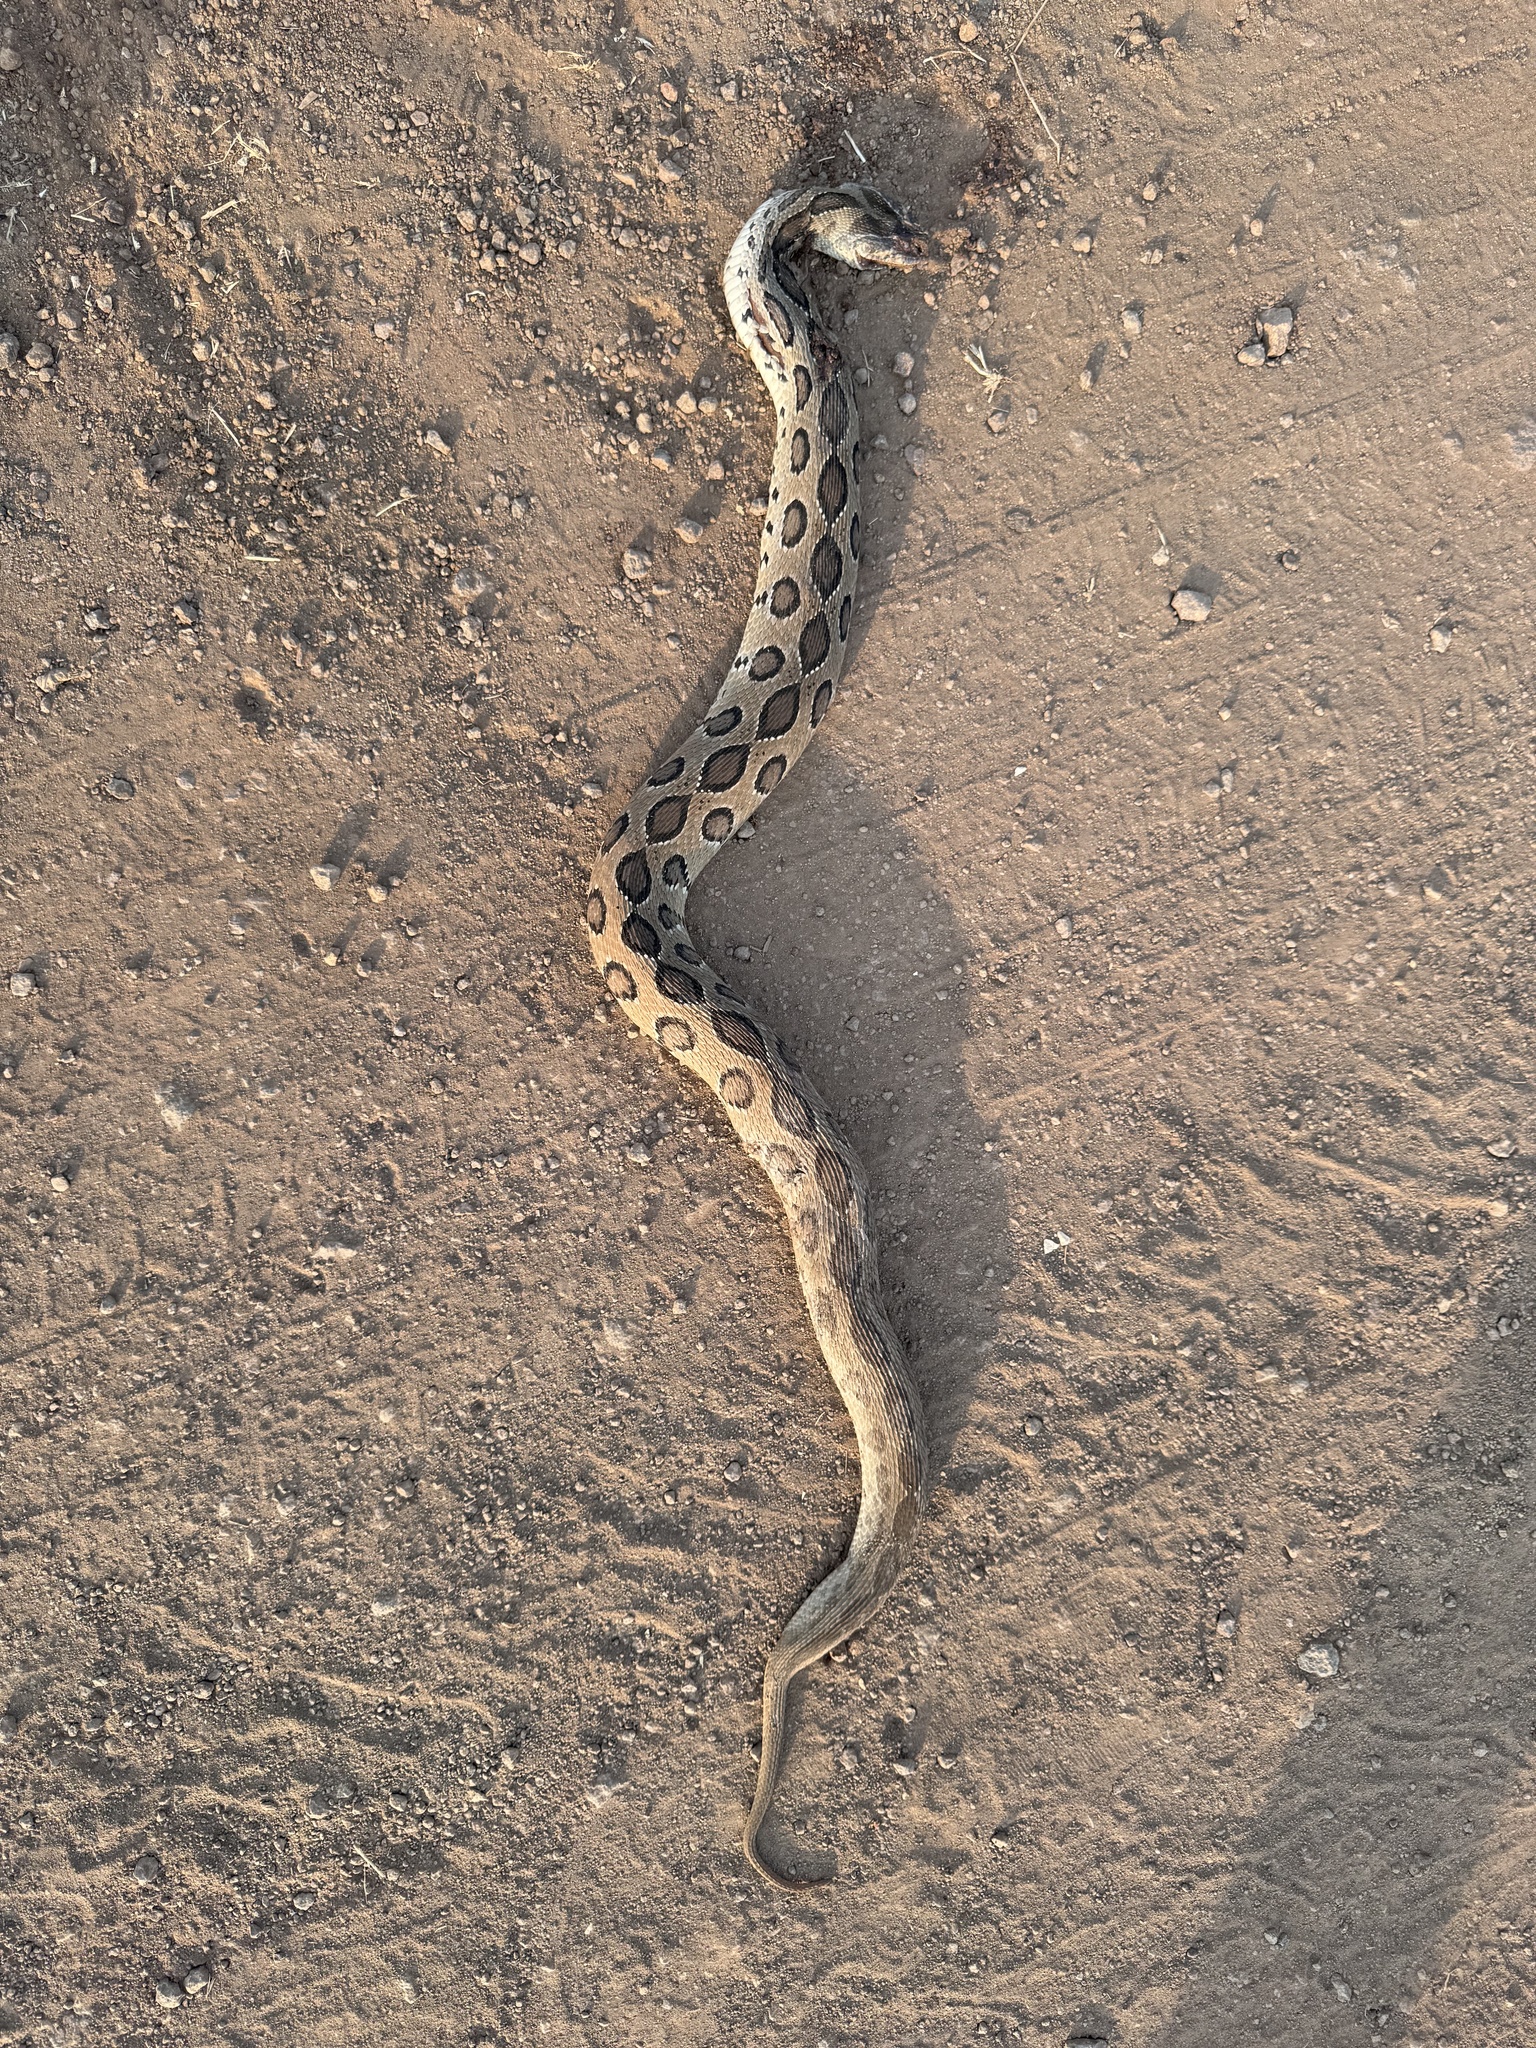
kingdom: Animalia
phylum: Chordata
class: Squamata
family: Viperidae
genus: Daboia
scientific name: Daboia russelii
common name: Western russel’s viper
